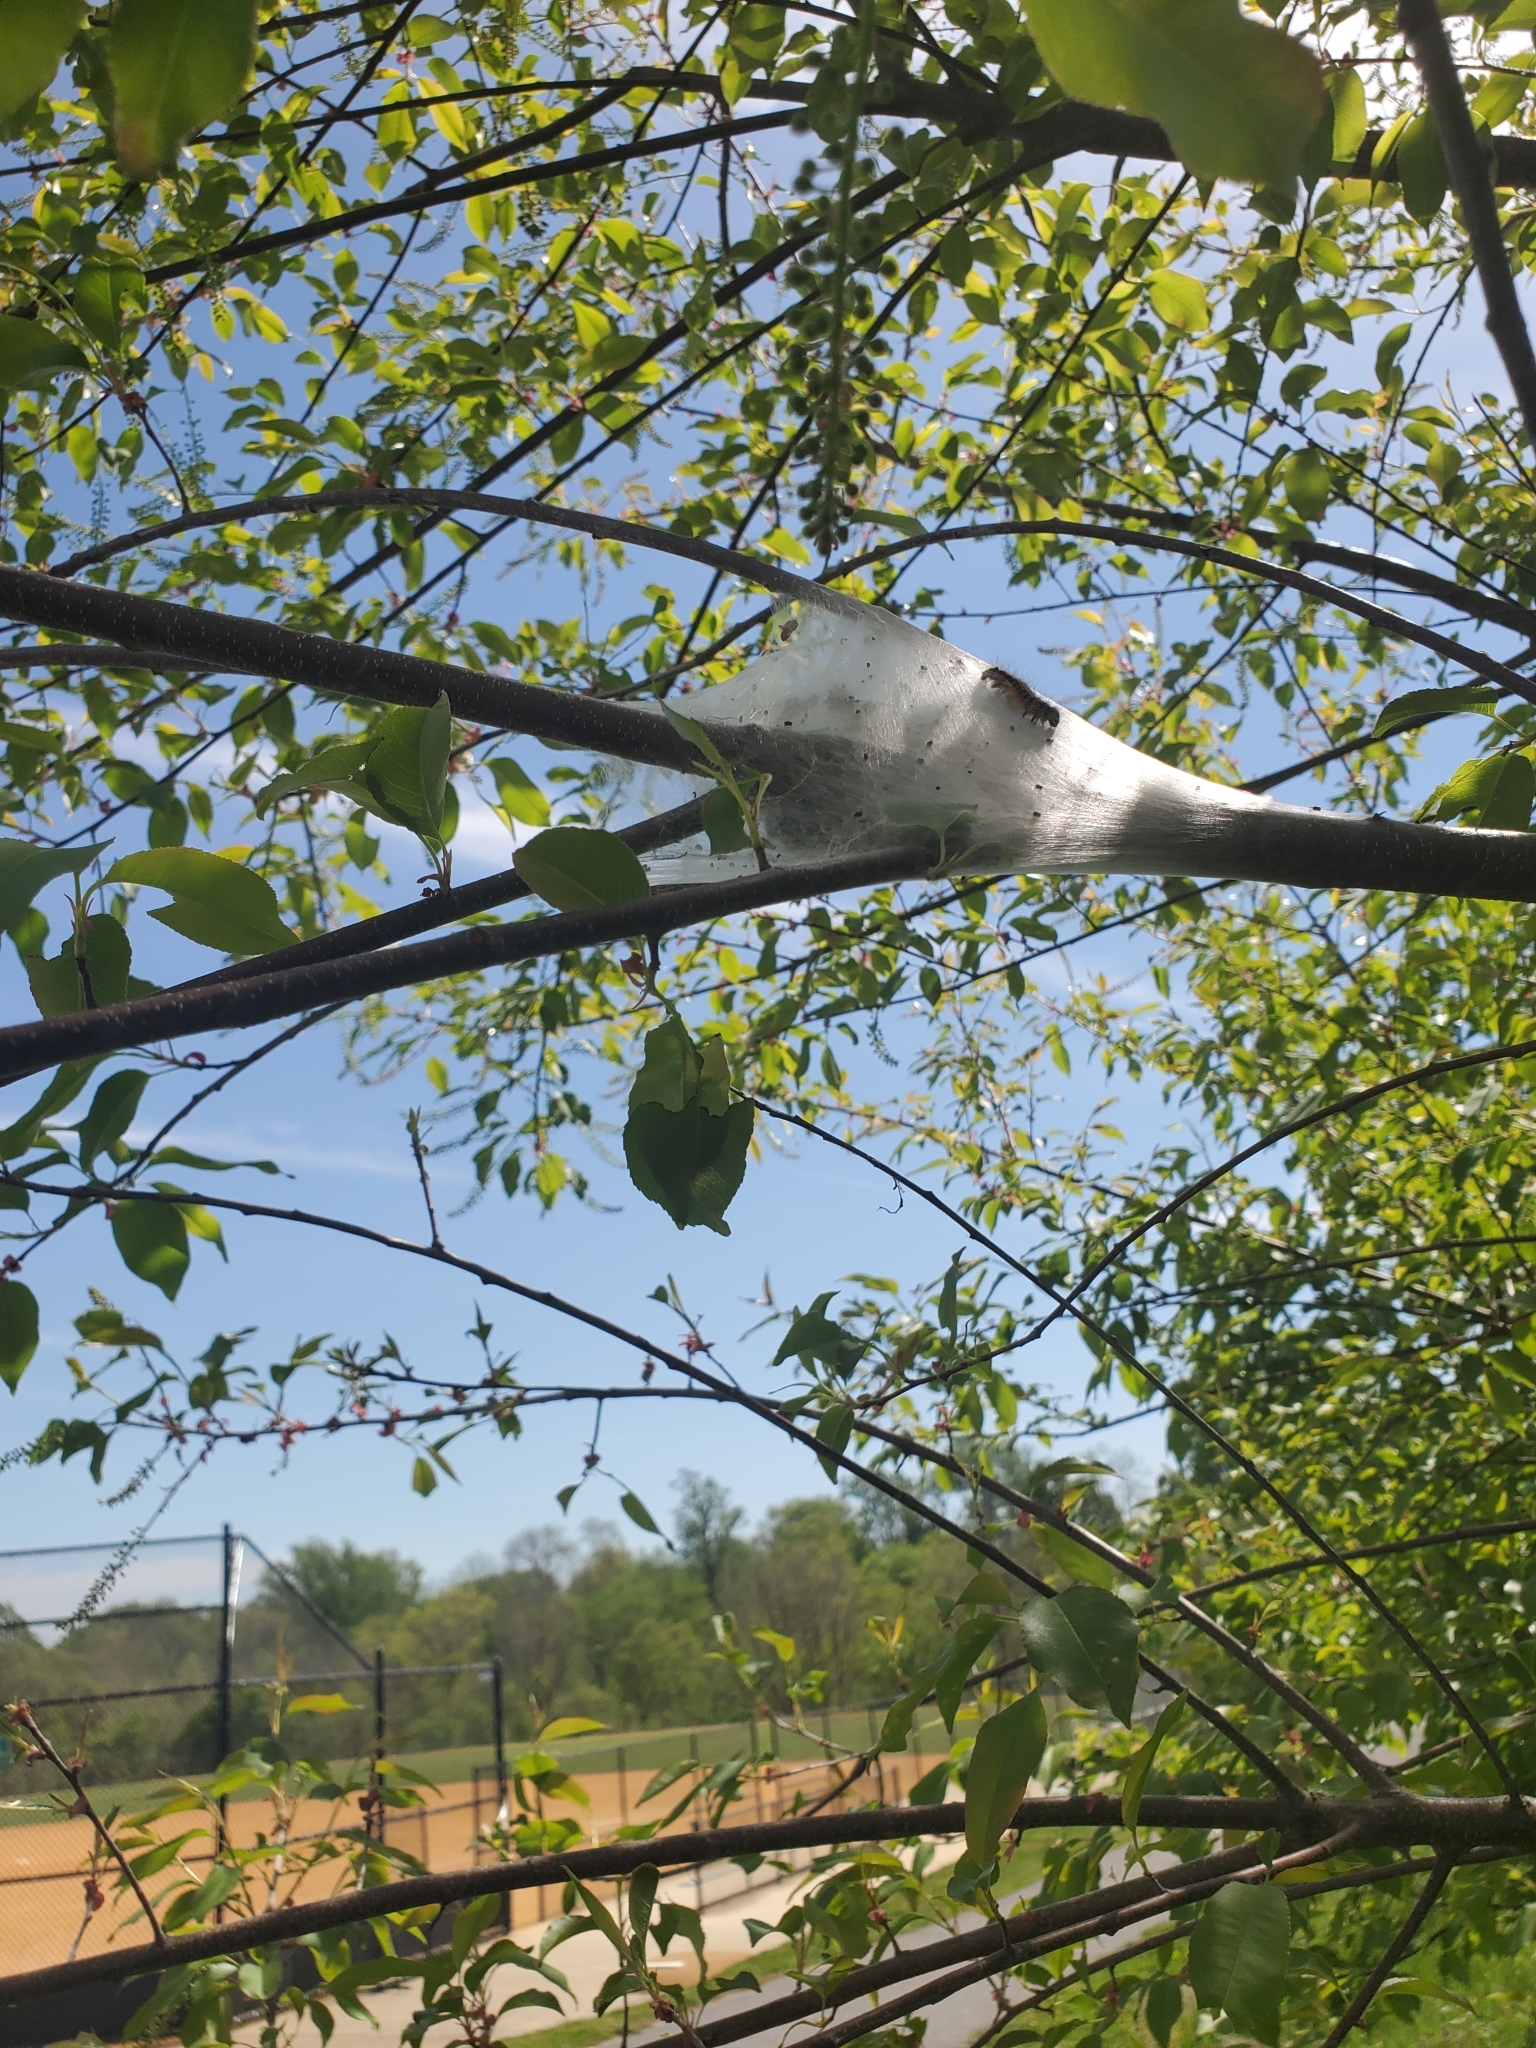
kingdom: Animalia
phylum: Arthropoda
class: Insecta
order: Lepidoptera
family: Lasiocampidae
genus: Malacosoma
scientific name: Malacosoma americana
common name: Eastern tent caterpillar moth
